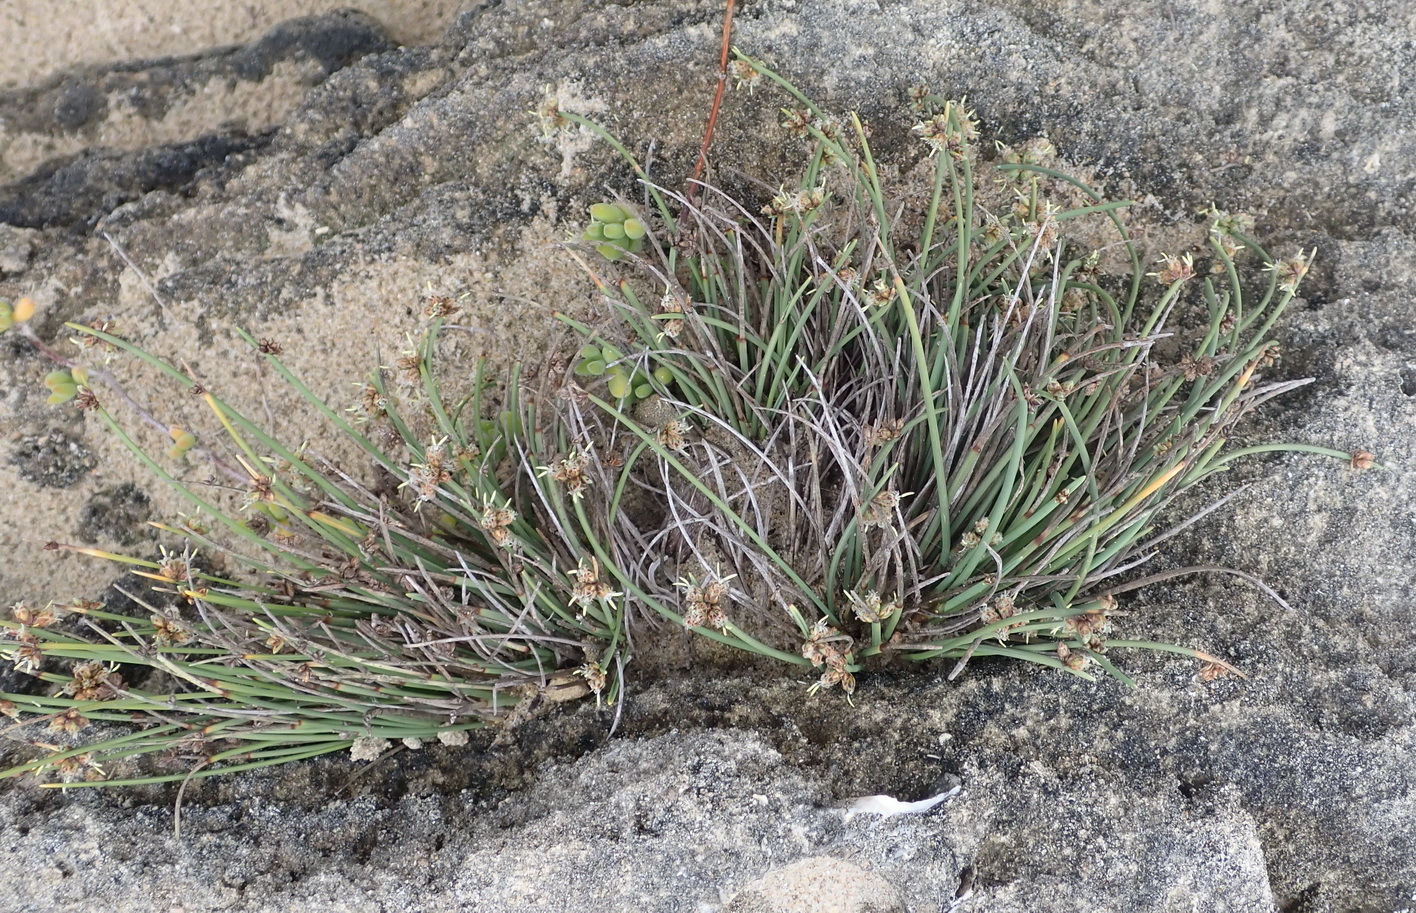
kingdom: Plantae
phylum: Tracheophyta
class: Liliopsida
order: Poales
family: Cyperaceae
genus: Ficinia
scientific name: Ficinia lateralis
